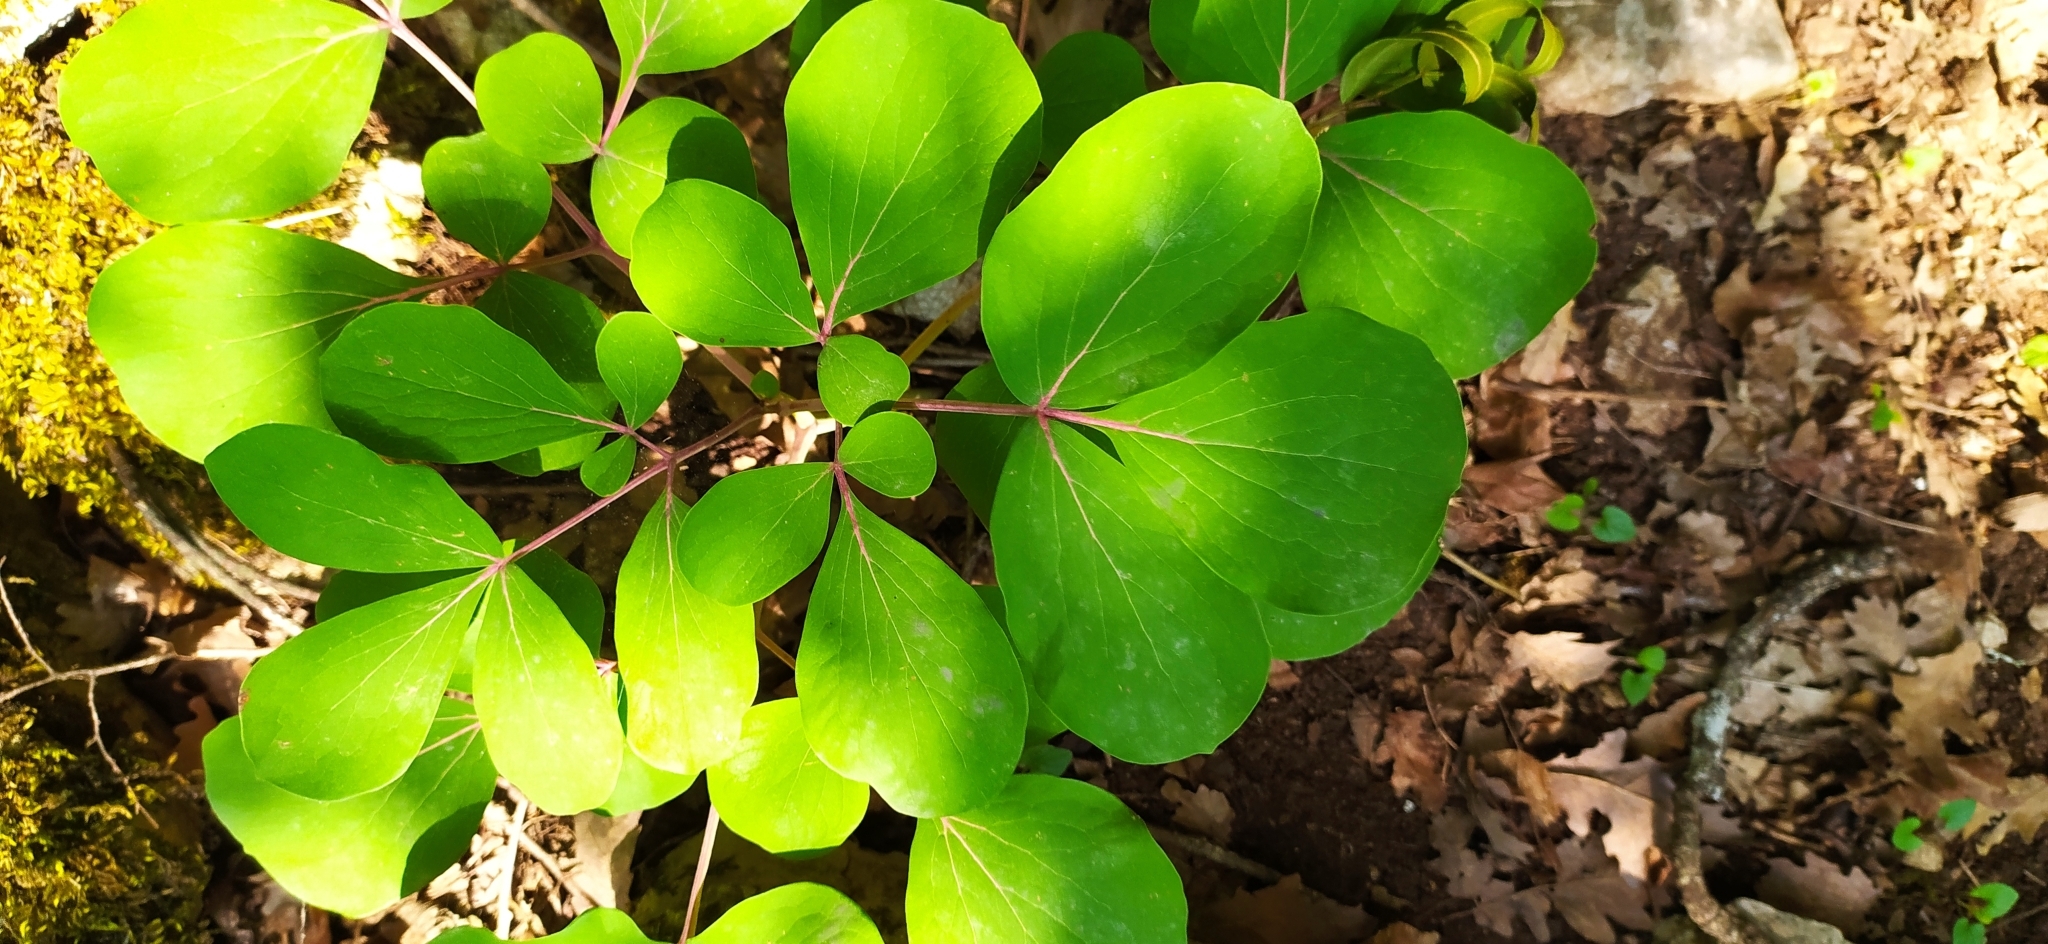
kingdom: Plantae
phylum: Tracheophyta
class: Magnoliopsida
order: Saxifragales
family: Paeoniaceae
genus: Paeonia
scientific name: Paeonia daurica
